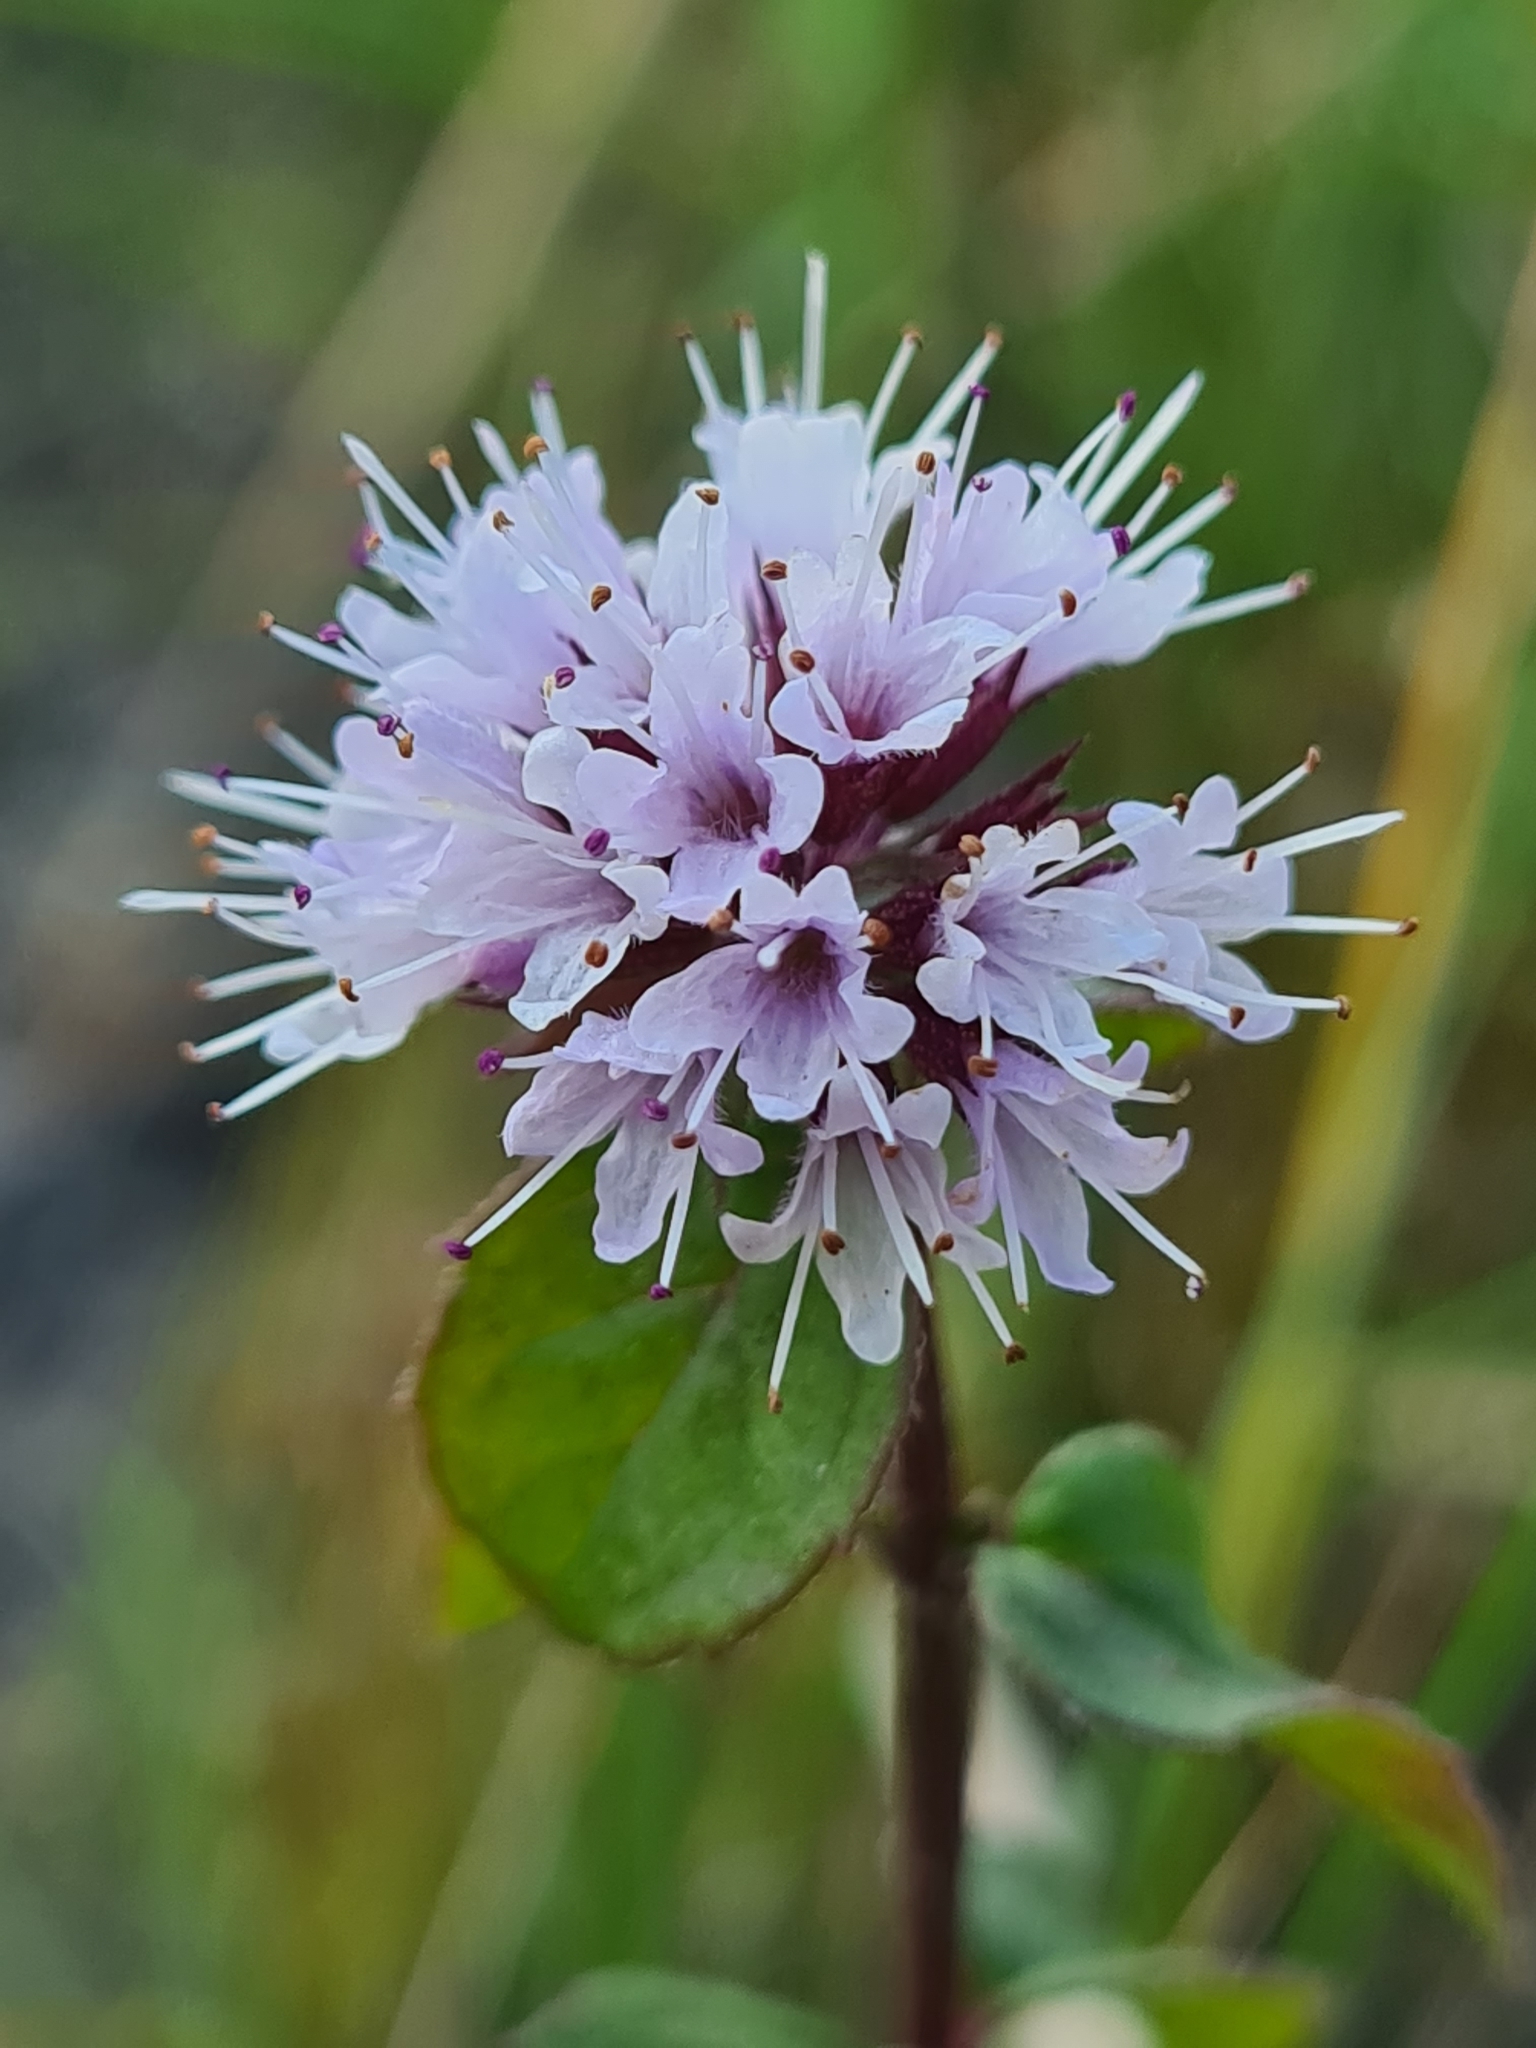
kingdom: Plantae
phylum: Tracheophyta
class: Magnoliopsida
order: Lamiales
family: Lamiaceae
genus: Mentha
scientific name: Mentha aquatica
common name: Water mint
